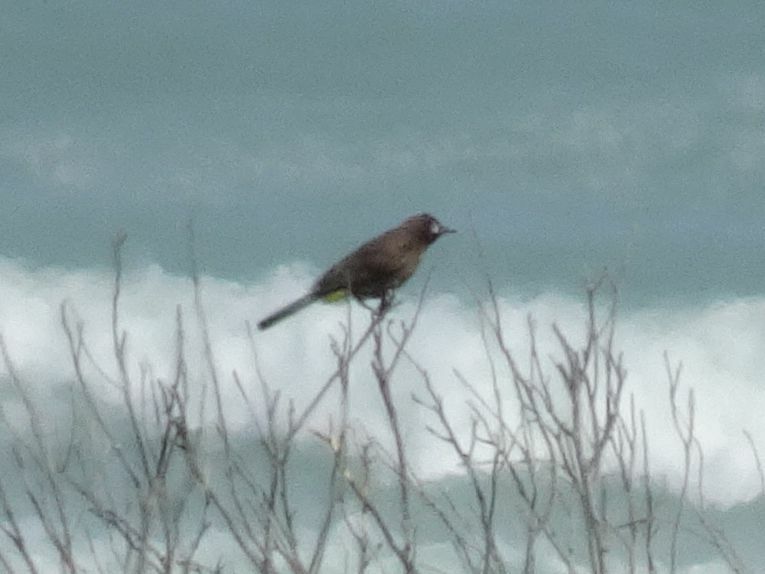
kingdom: Animalia
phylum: Chordata
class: Aves
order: Passeriformes
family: Pycnonotidae
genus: Pycnonotus
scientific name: Pycnonotus capensis
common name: Cape bulbul
